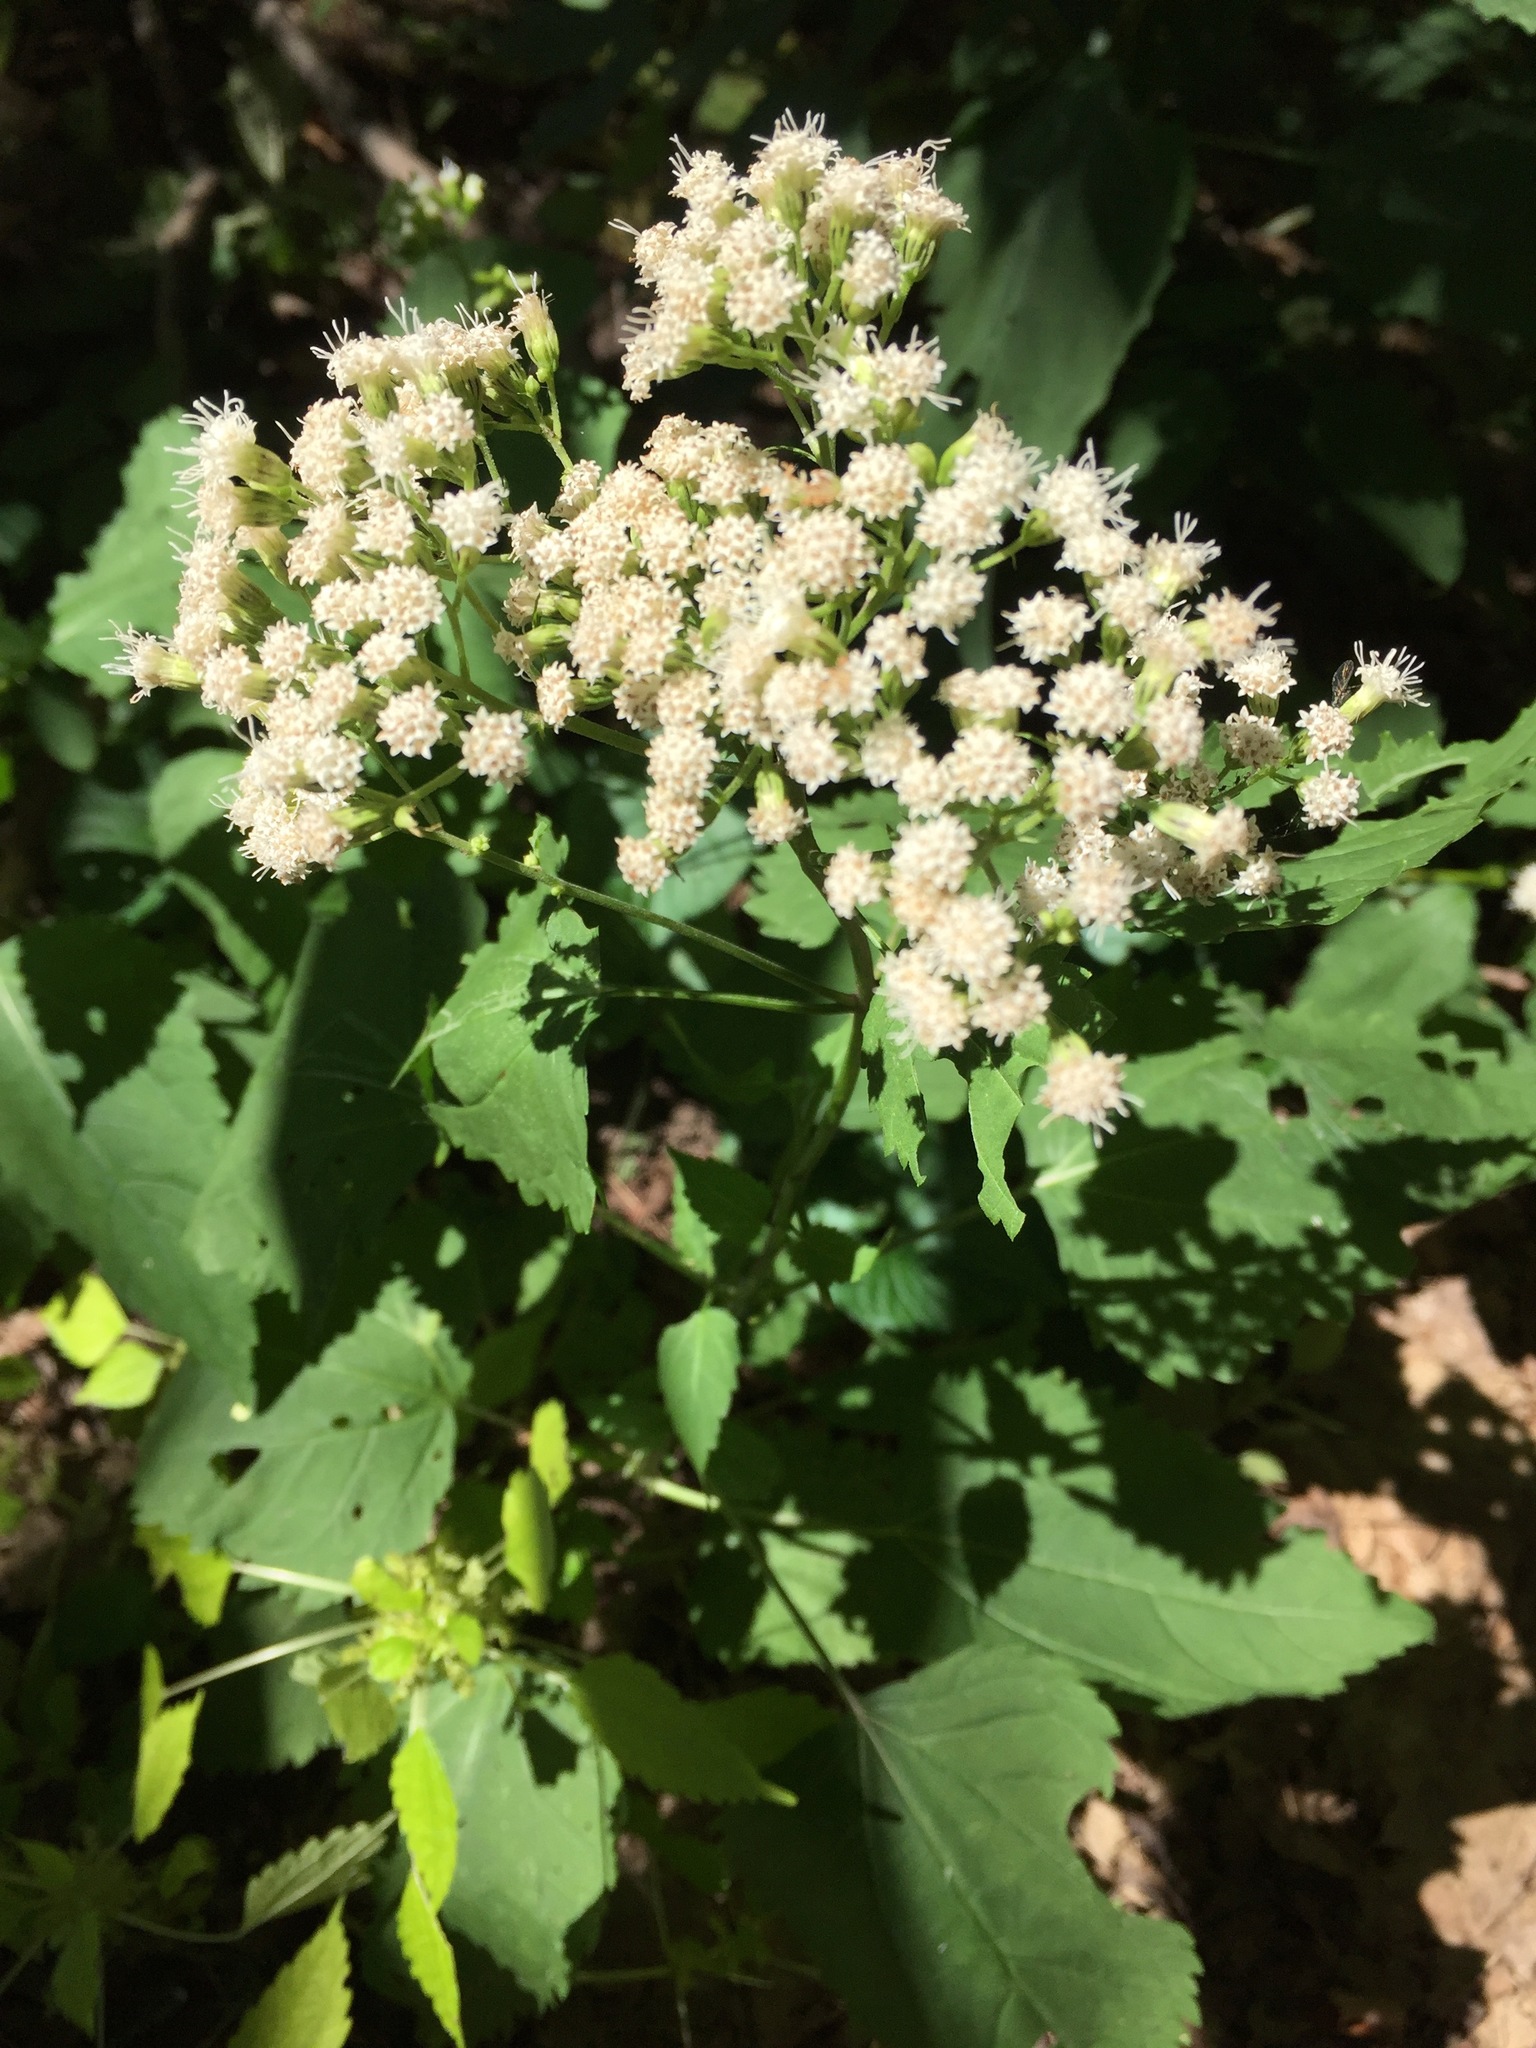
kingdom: Plantae
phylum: Tracheophyta
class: Magnoliopsida
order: Asterales
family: Asteraceae
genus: Ageratina
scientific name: Ageratina altissima
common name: White snakeroot
